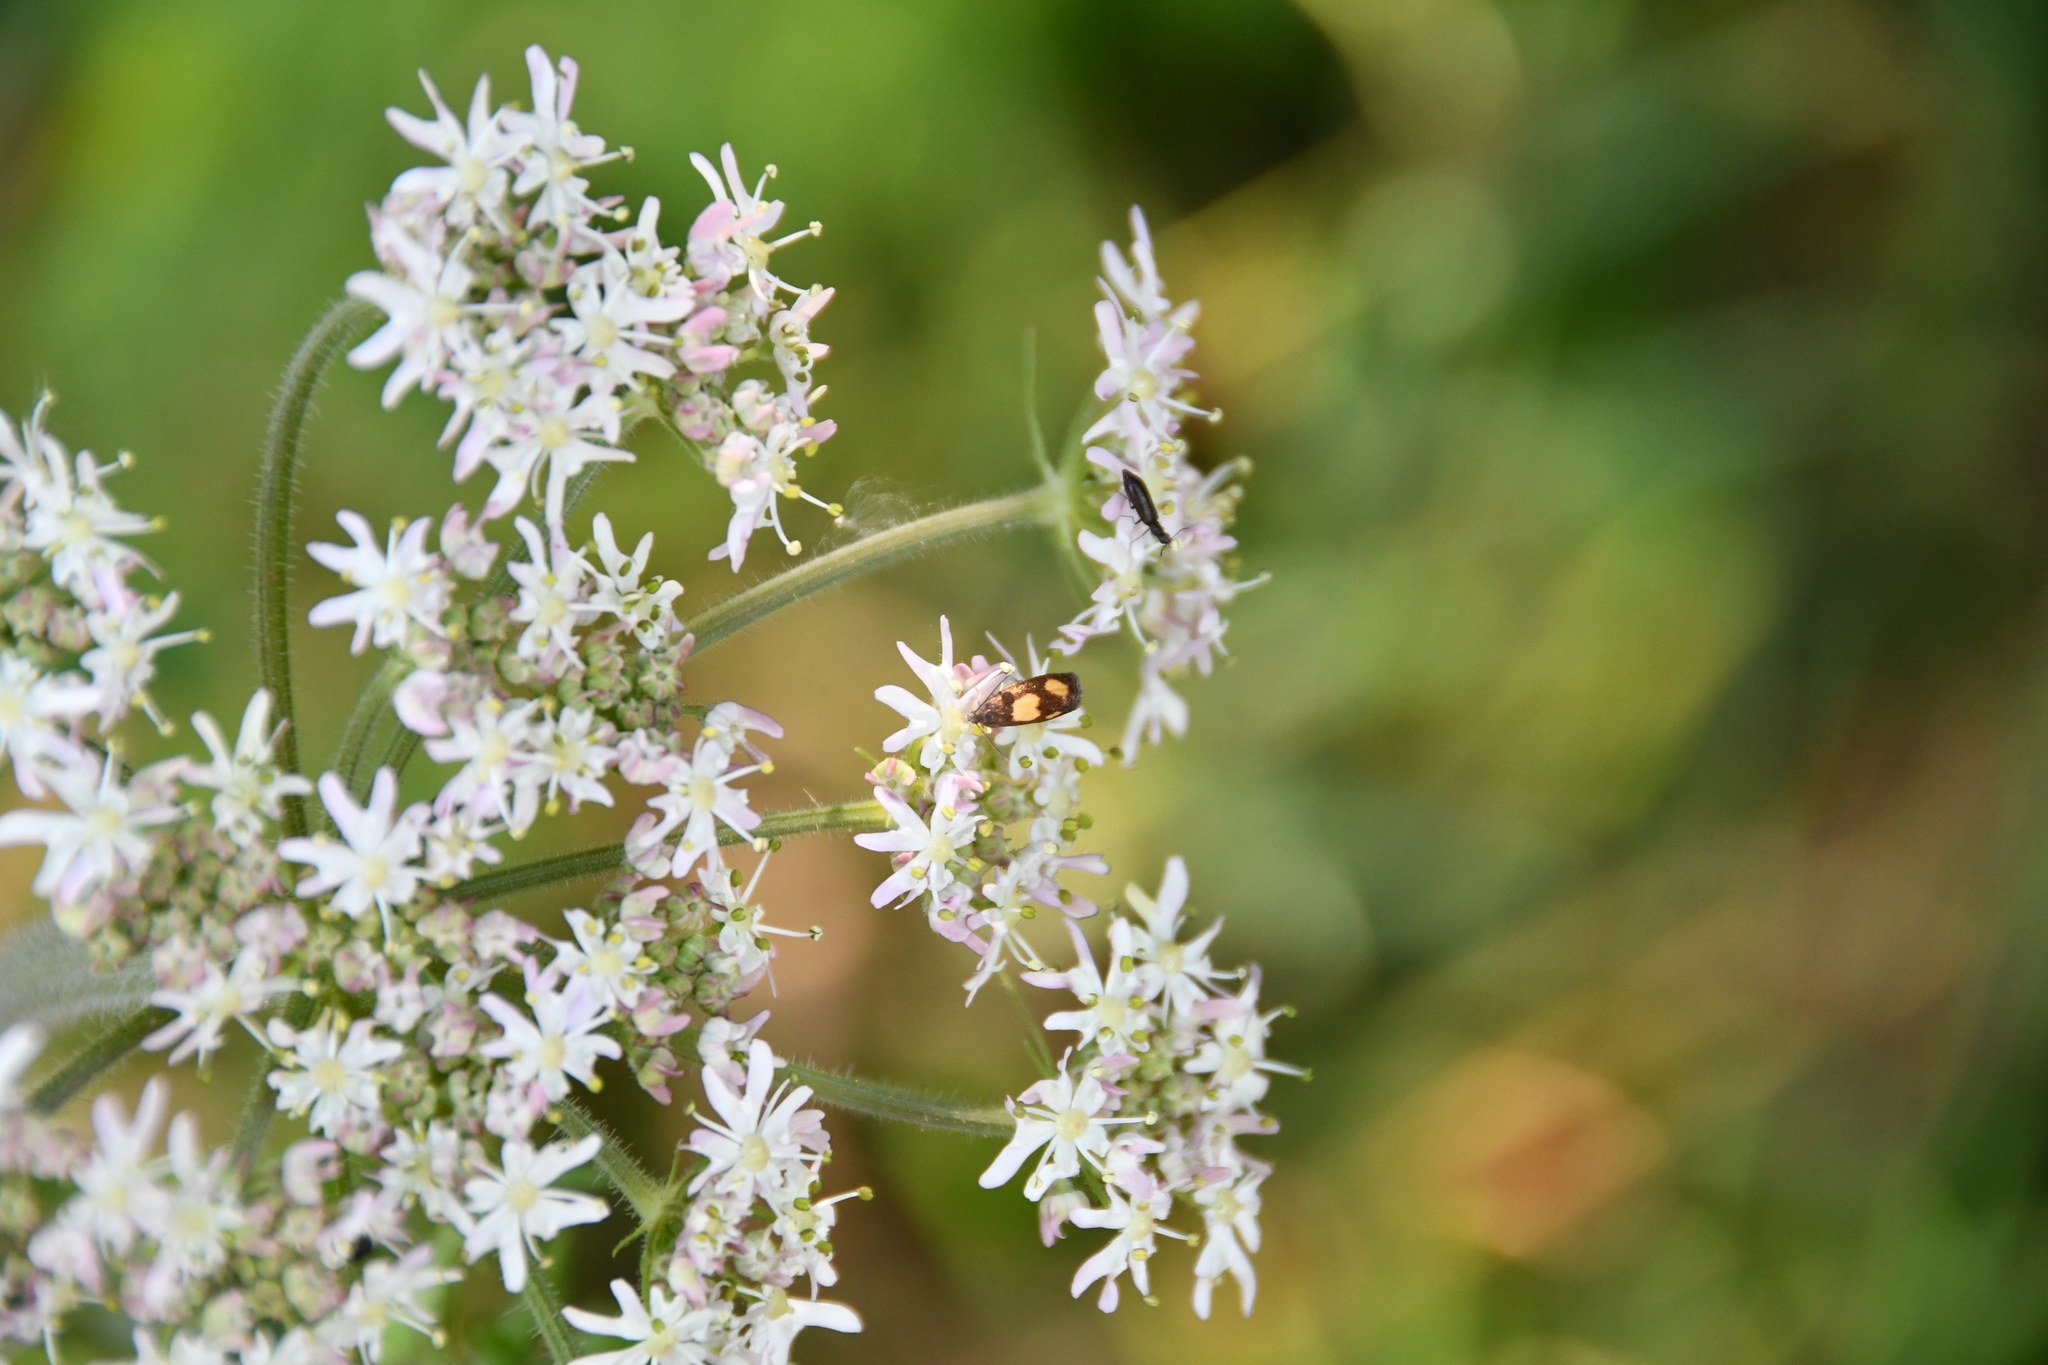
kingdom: Animalia
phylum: Arthropoda
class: Insecta
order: Lepidoptera
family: Tortricidae
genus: Pammene
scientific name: Pammene aurana
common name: Orange-spot piercer
